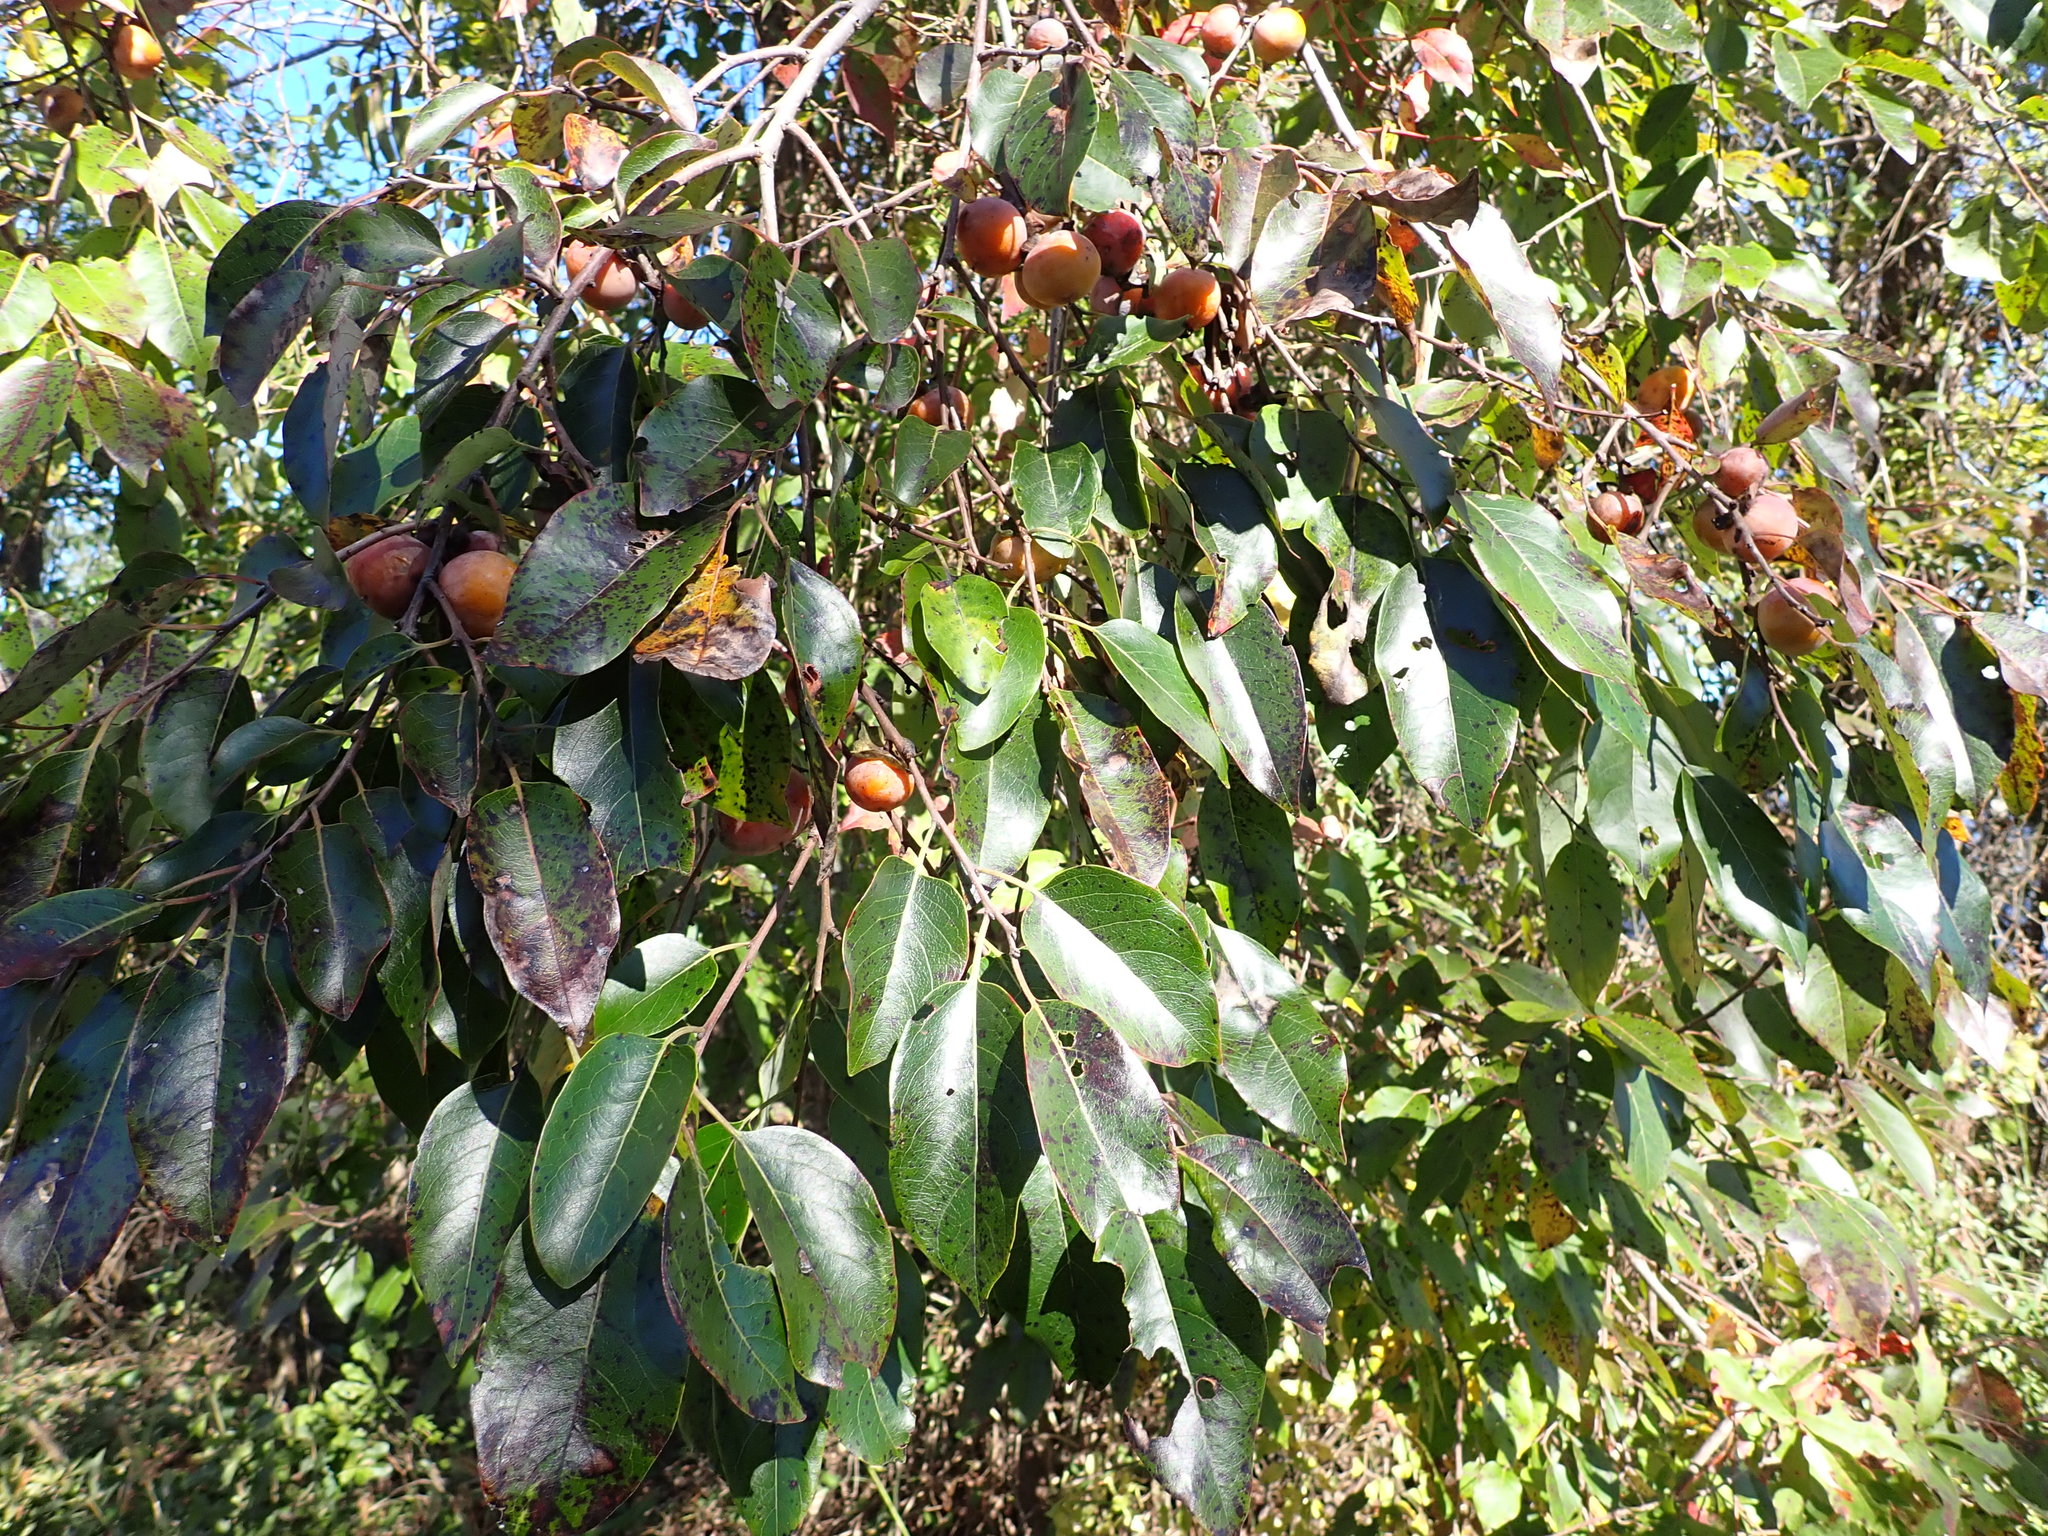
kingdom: Plantae
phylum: Tracheophyta
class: Magnoliopsida
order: Ericales
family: Ebenaceae
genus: Diospyros
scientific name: Diospyros virginiana
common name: Persimmon
